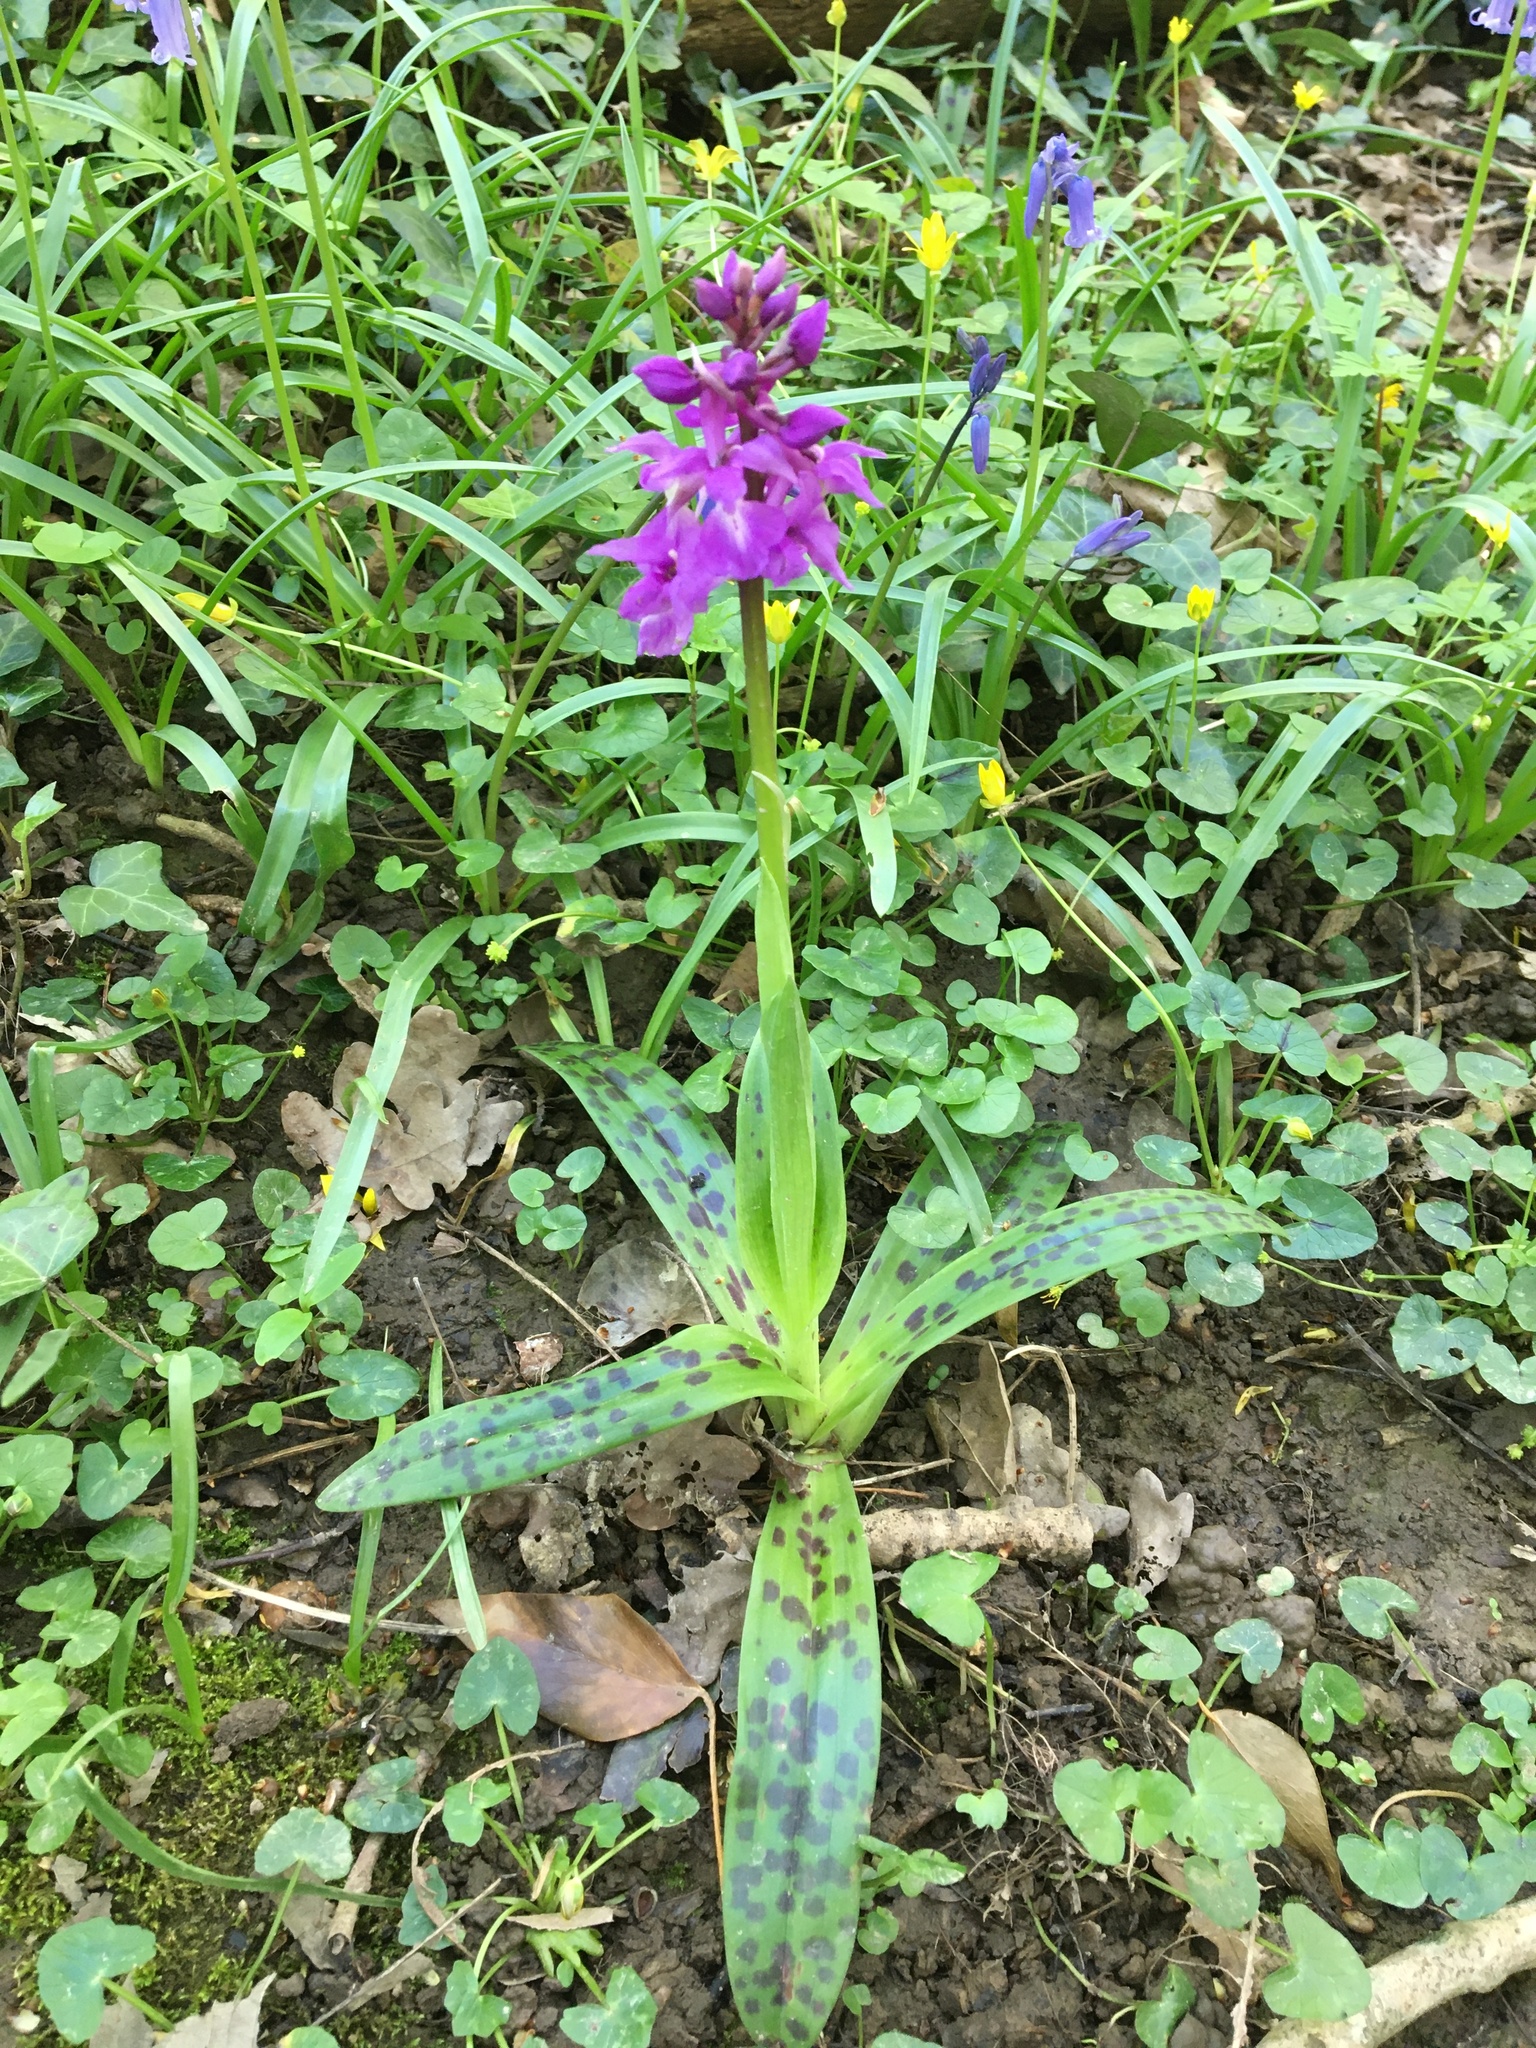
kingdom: Plantae
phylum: Tracheophyta
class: Liliopsida
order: Asparagales
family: Orchidaceae
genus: Orchis
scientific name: Orchis mascula
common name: Early-purple orchid
